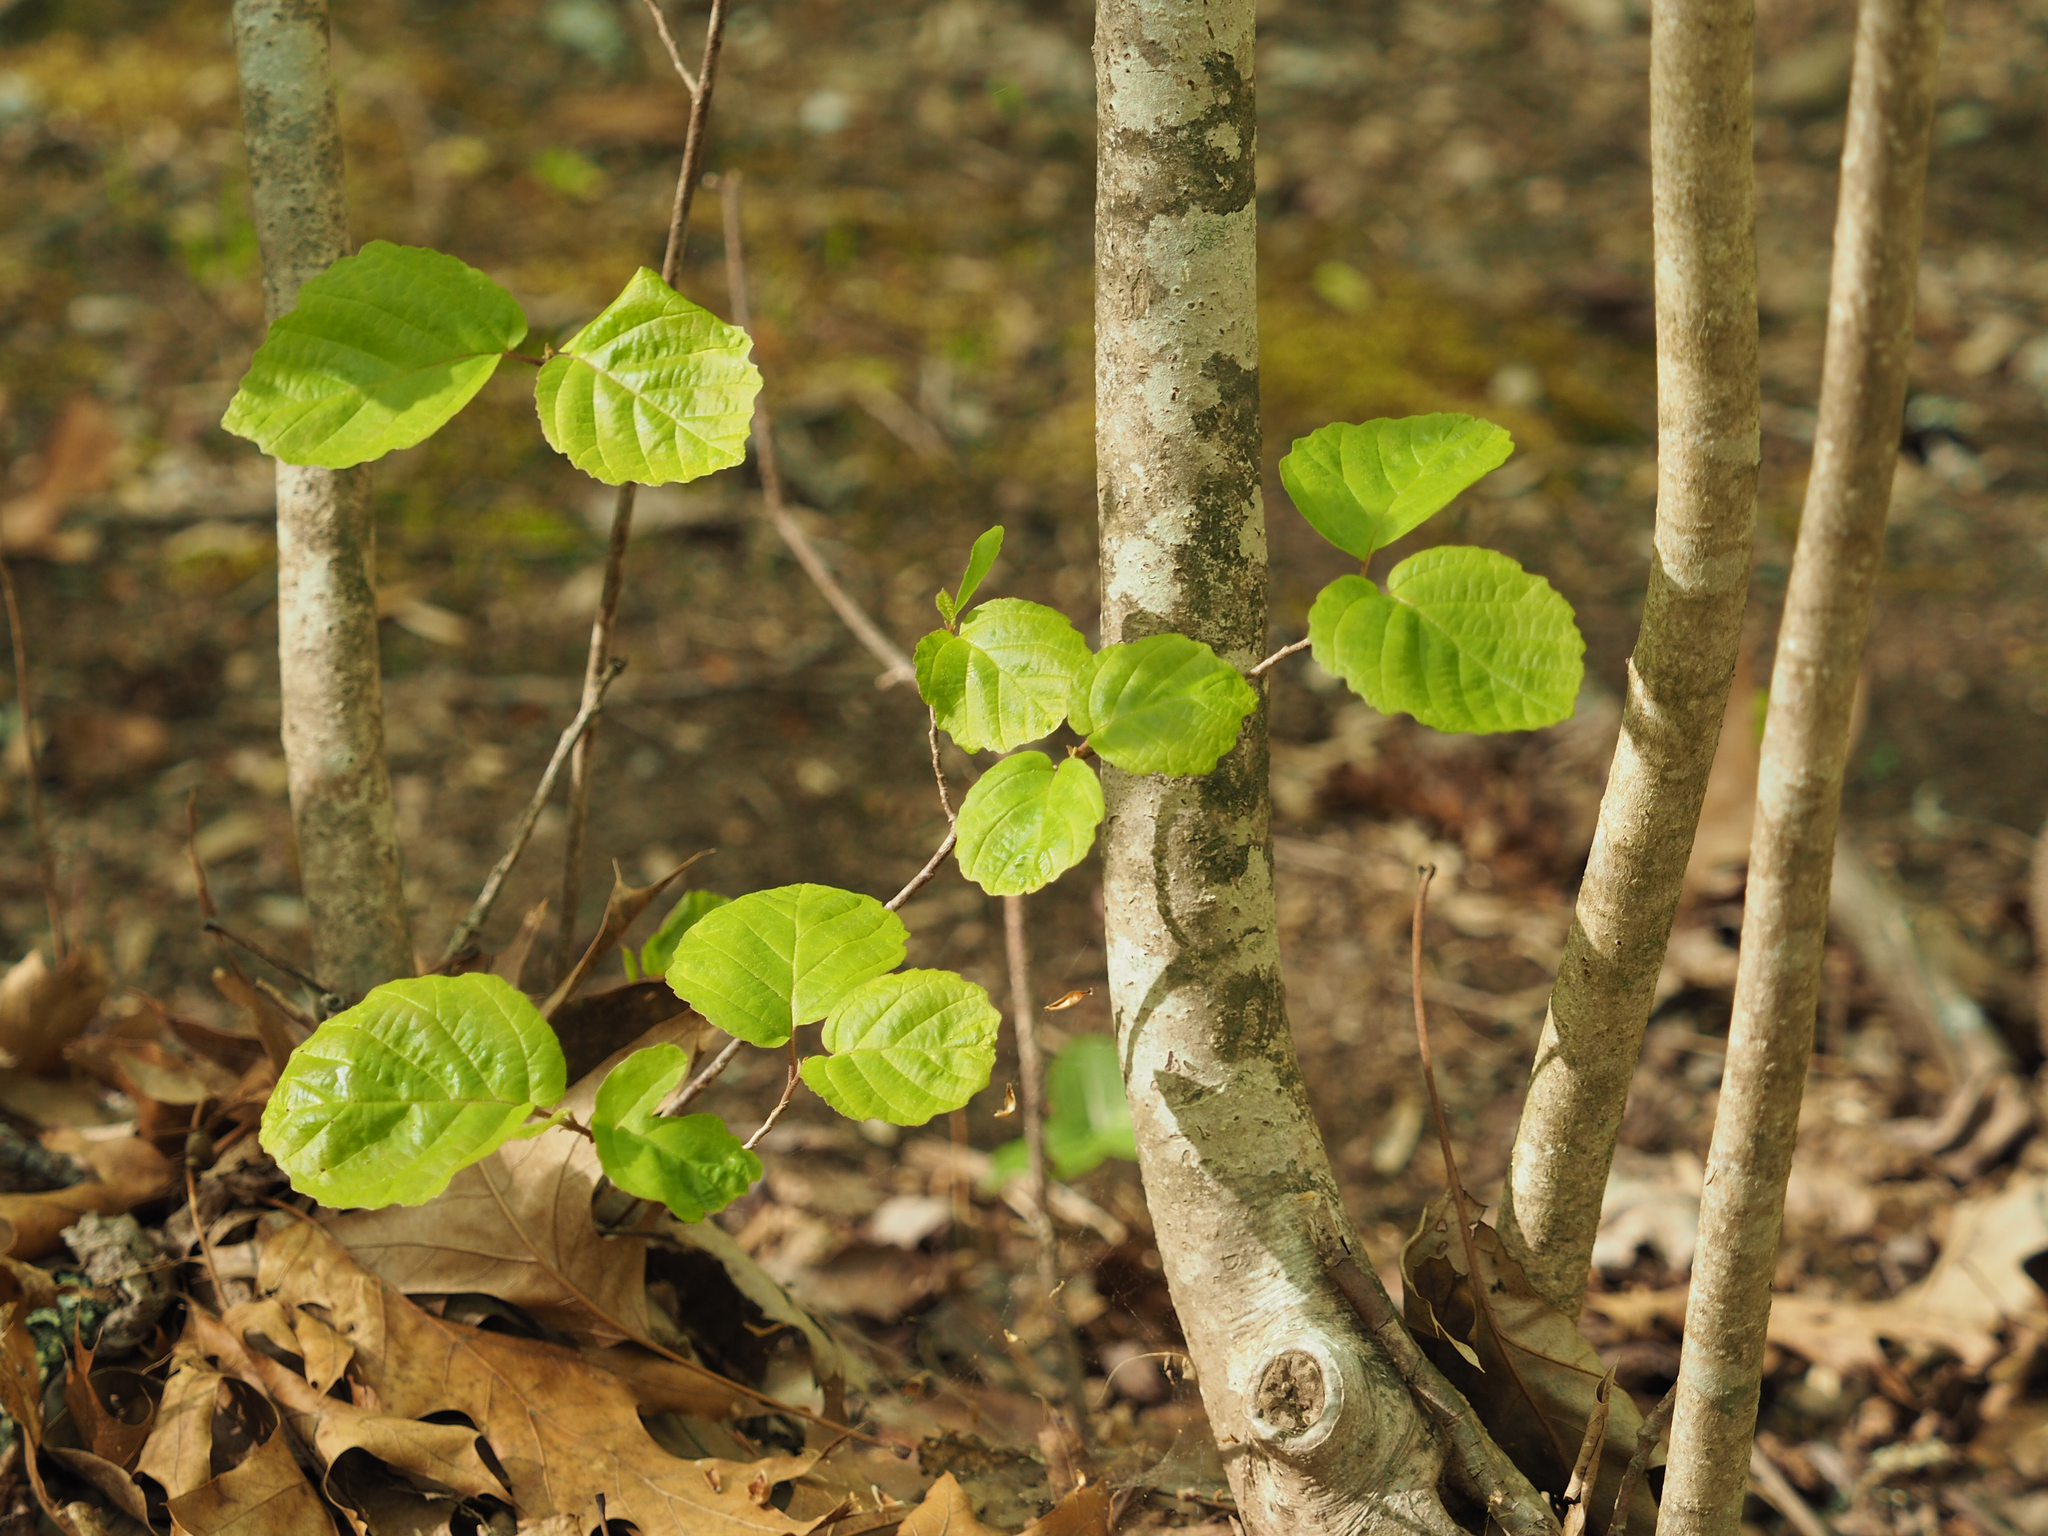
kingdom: Plantae
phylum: Tracheophyta
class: Magnoliopsida
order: Saxifragales
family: Hamamelidaceae
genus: Hamamelis
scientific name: Hamamelis virginiana
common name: Witch-hazel
